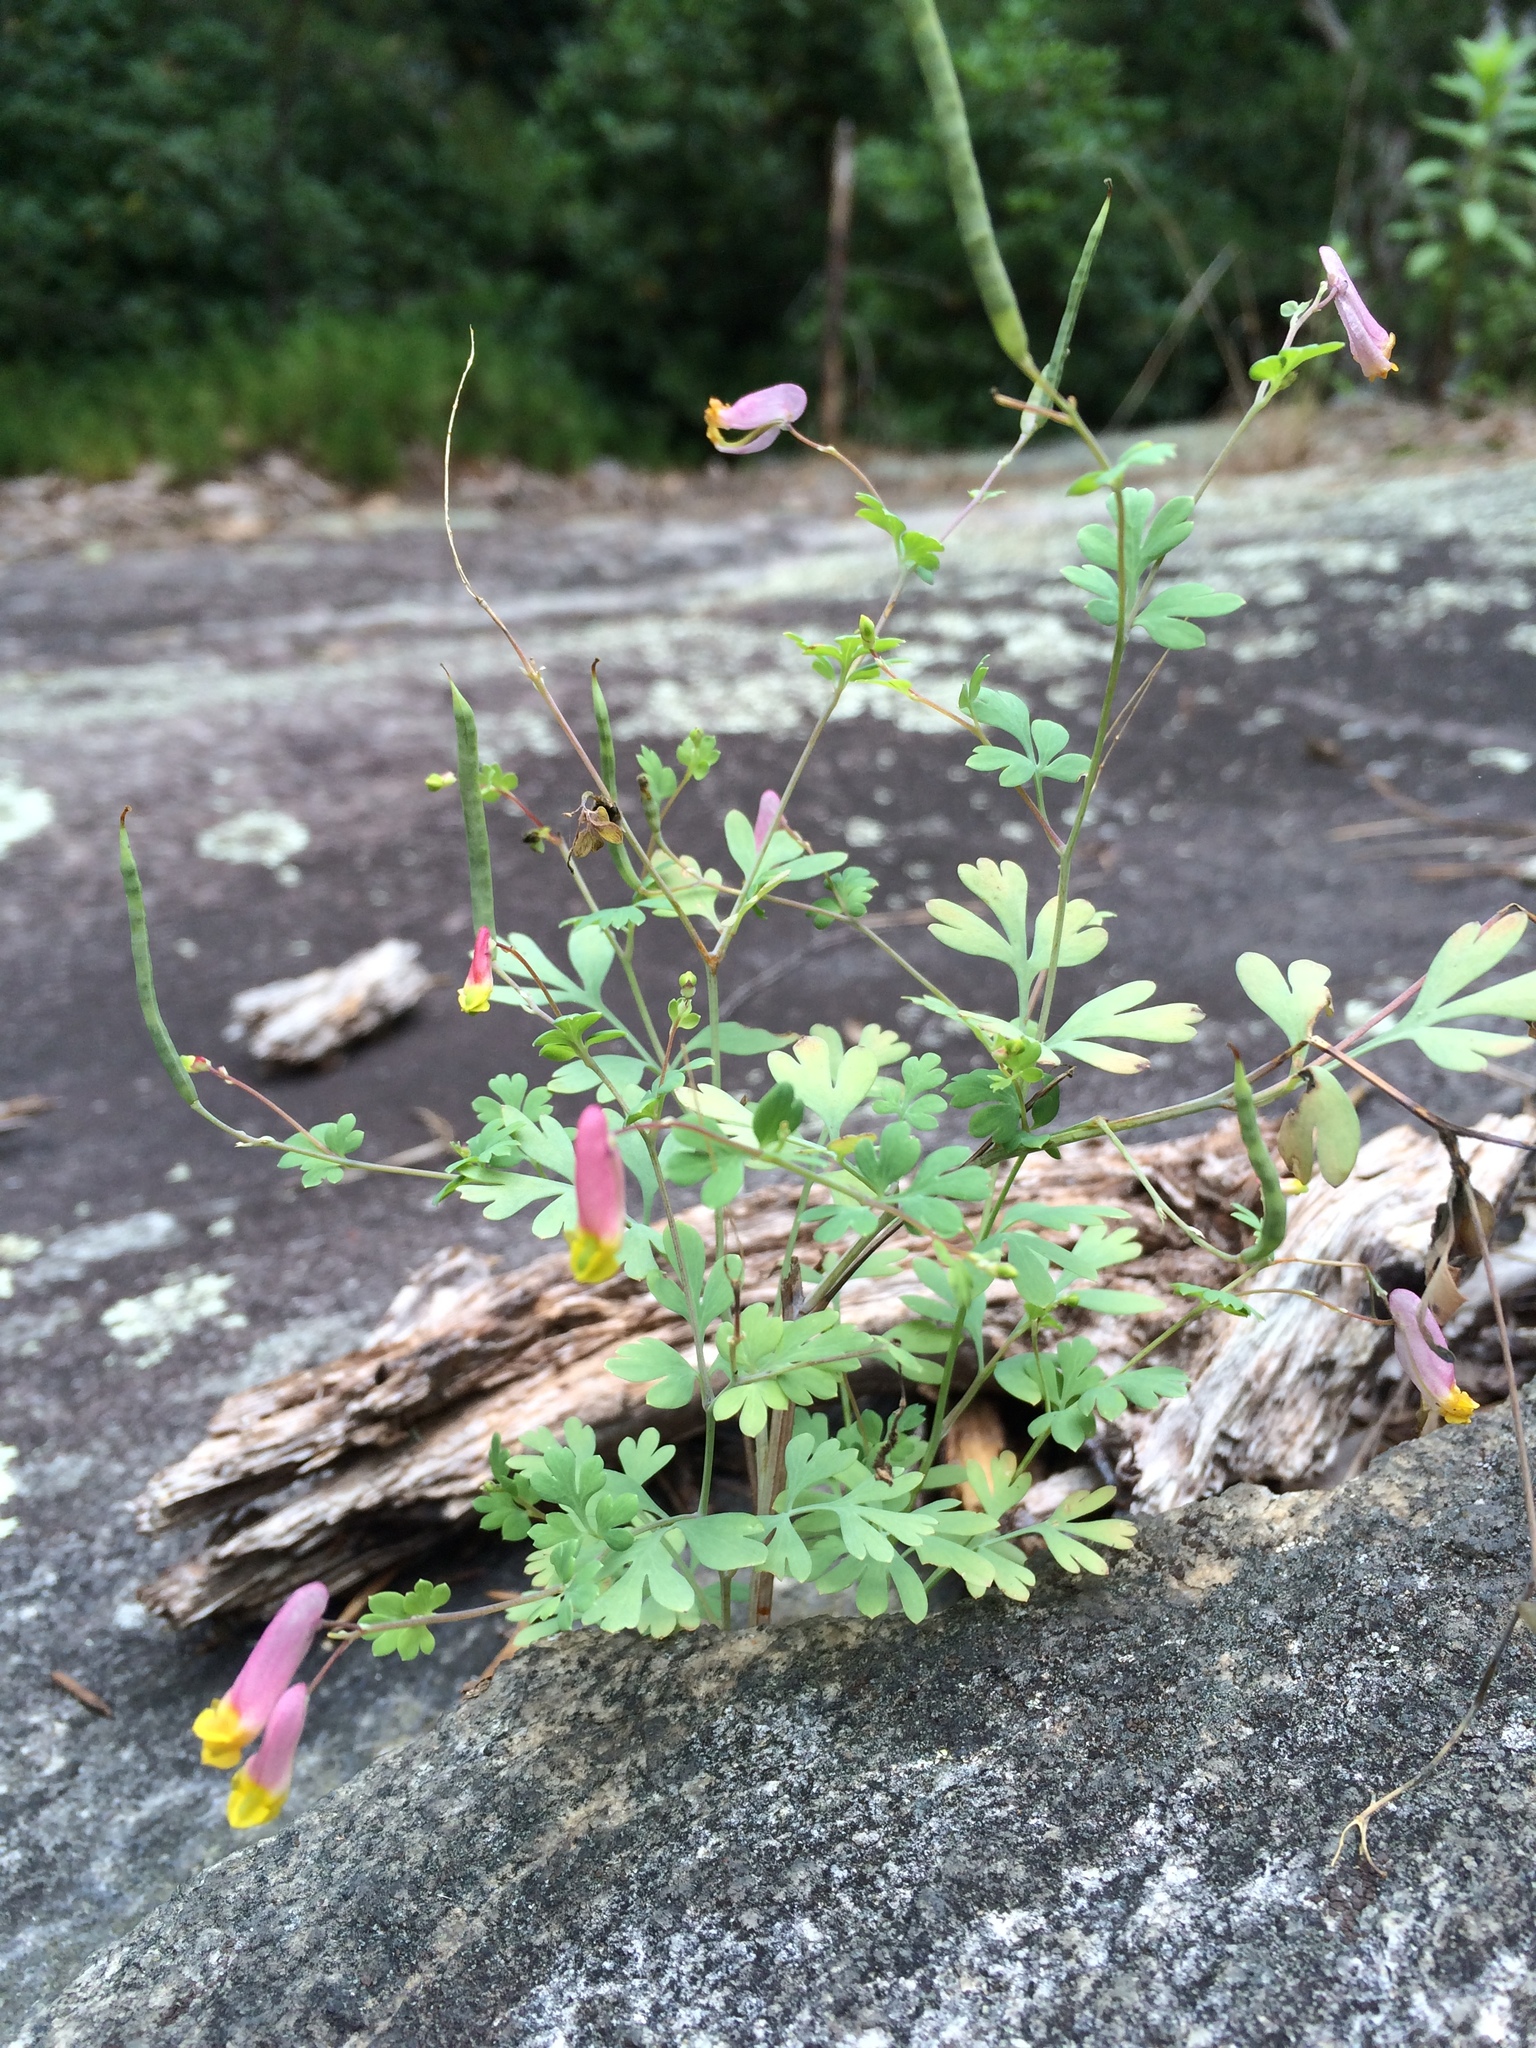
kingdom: Plantae
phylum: Tracheophyta
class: Magnoliopsida
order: Ranunculales
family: Papaveraceae
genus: Capnoides
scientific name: Capnoides sempervirens
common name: Rock harlequin
